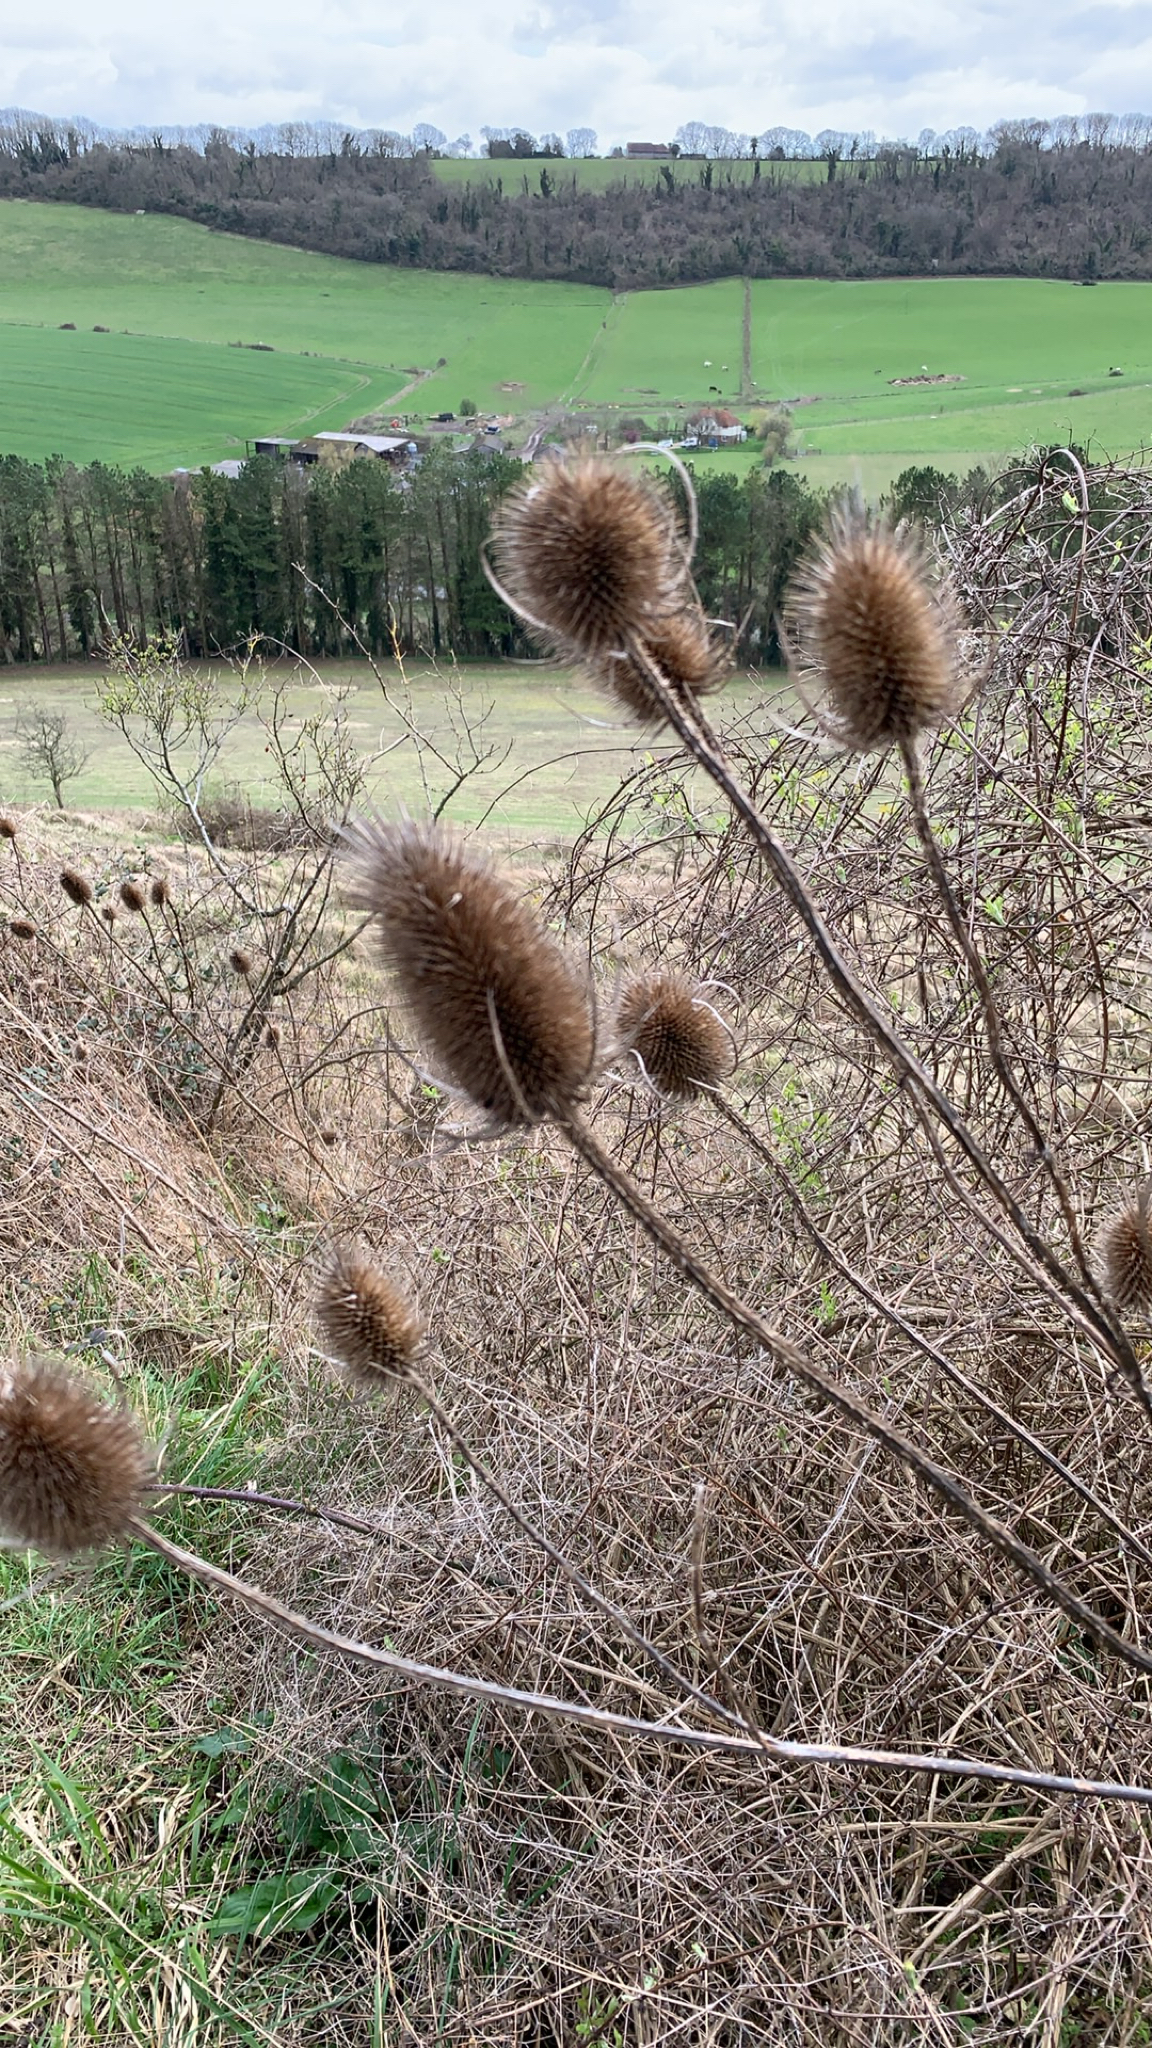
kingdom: Plantae
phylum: Tracheophyta
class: Magnoliopsida
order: Dipsacales
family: Caprifoliaceae
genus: Dipsacus
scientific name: Dipsacus fullonum
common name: Teasel
